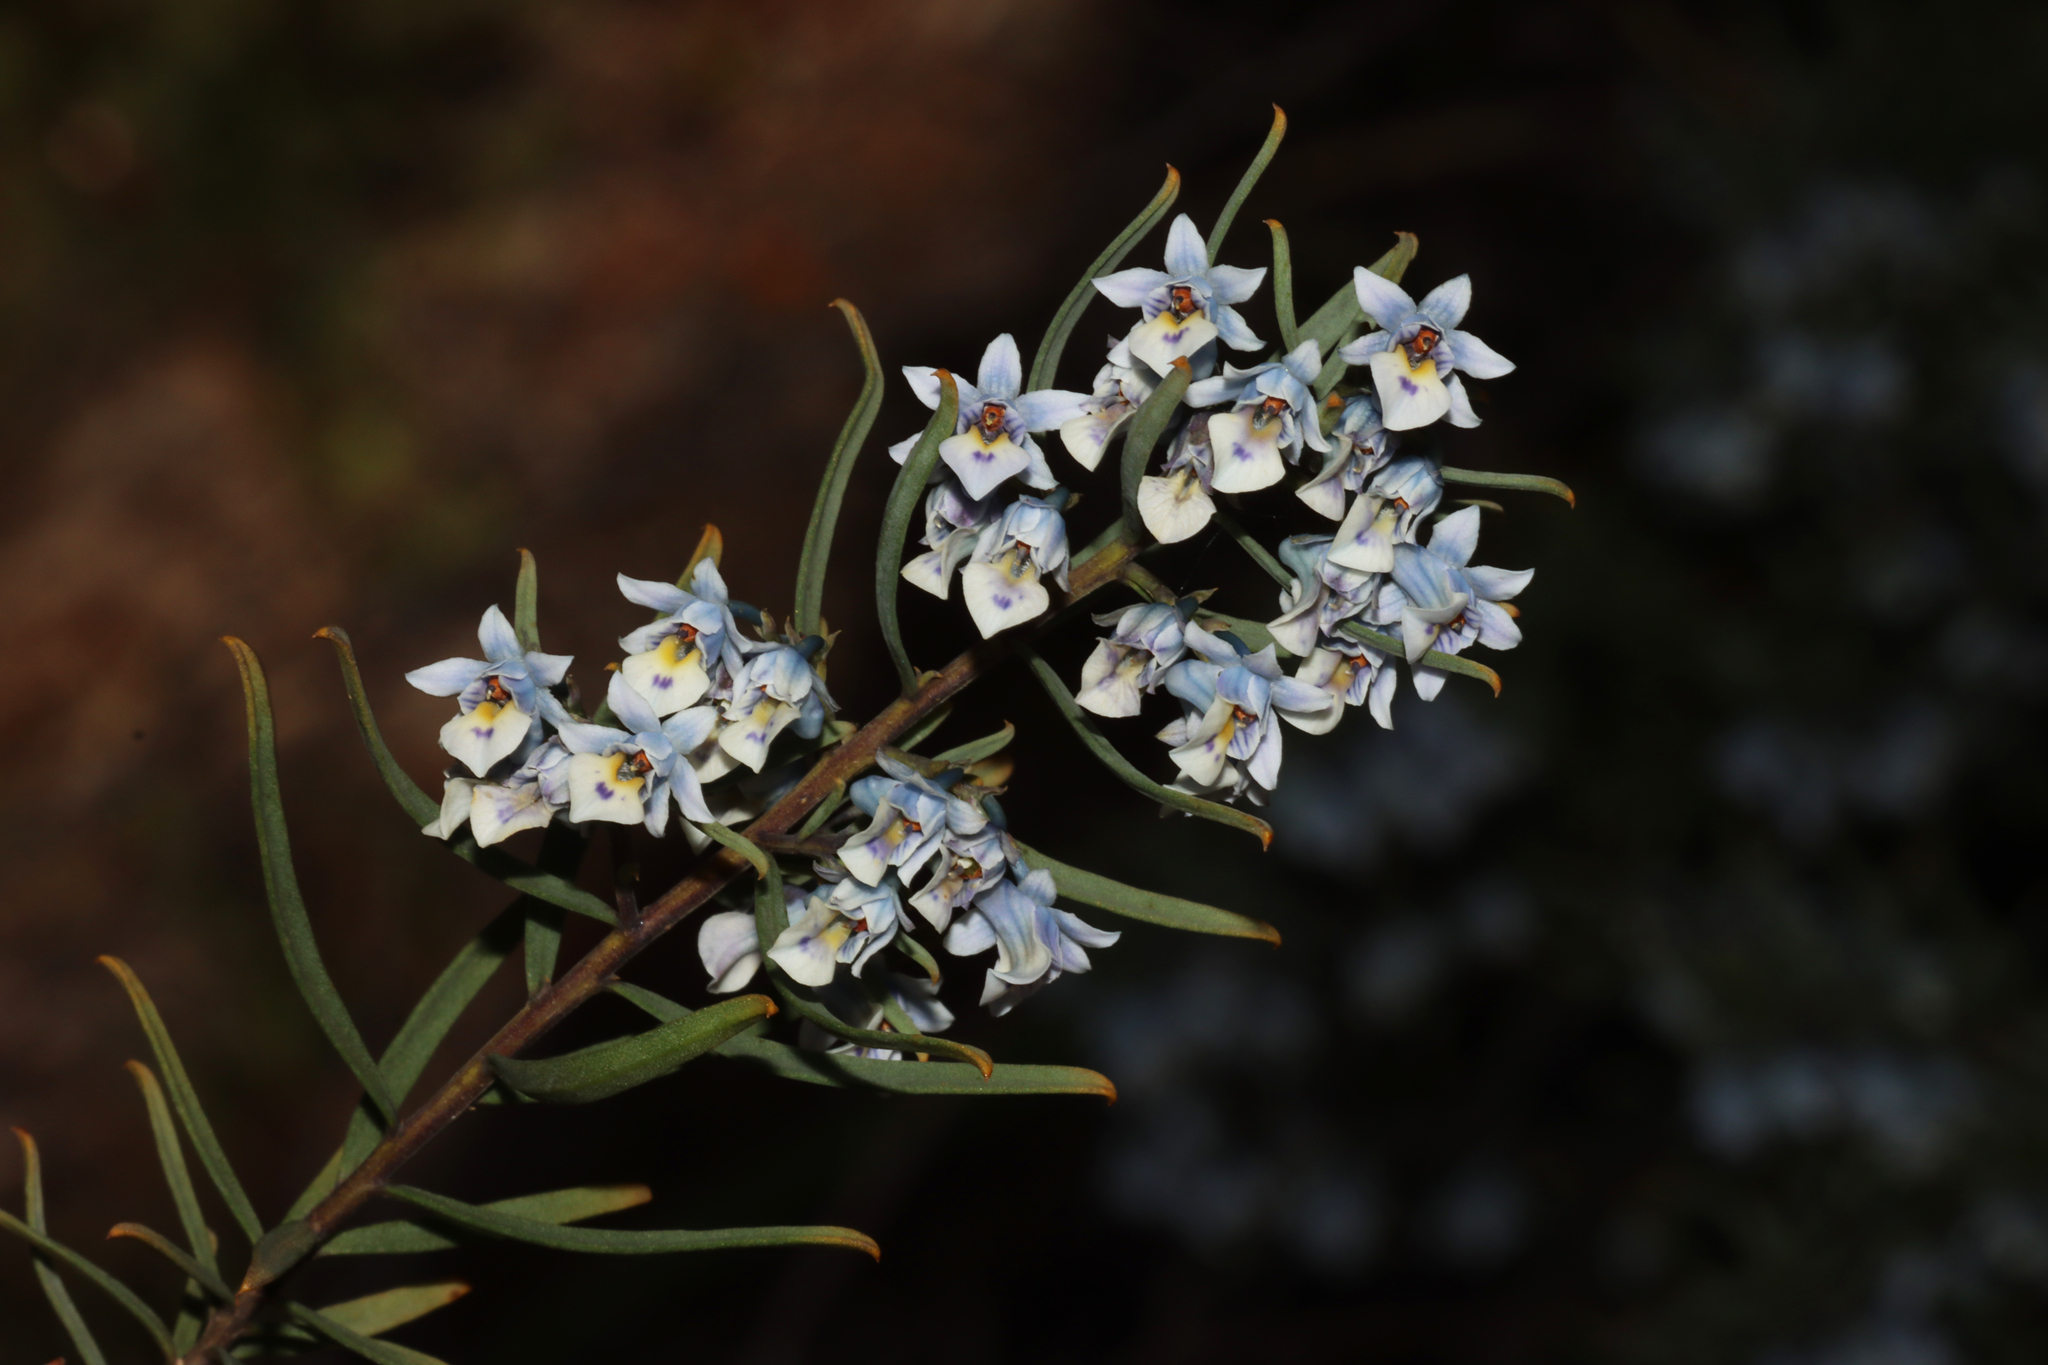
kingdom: Plantae
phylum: Tracheophyta
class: Magnoliopsida
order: Malpighiales
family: Violaceae
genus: Pigea
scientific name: Pigea floribunda
